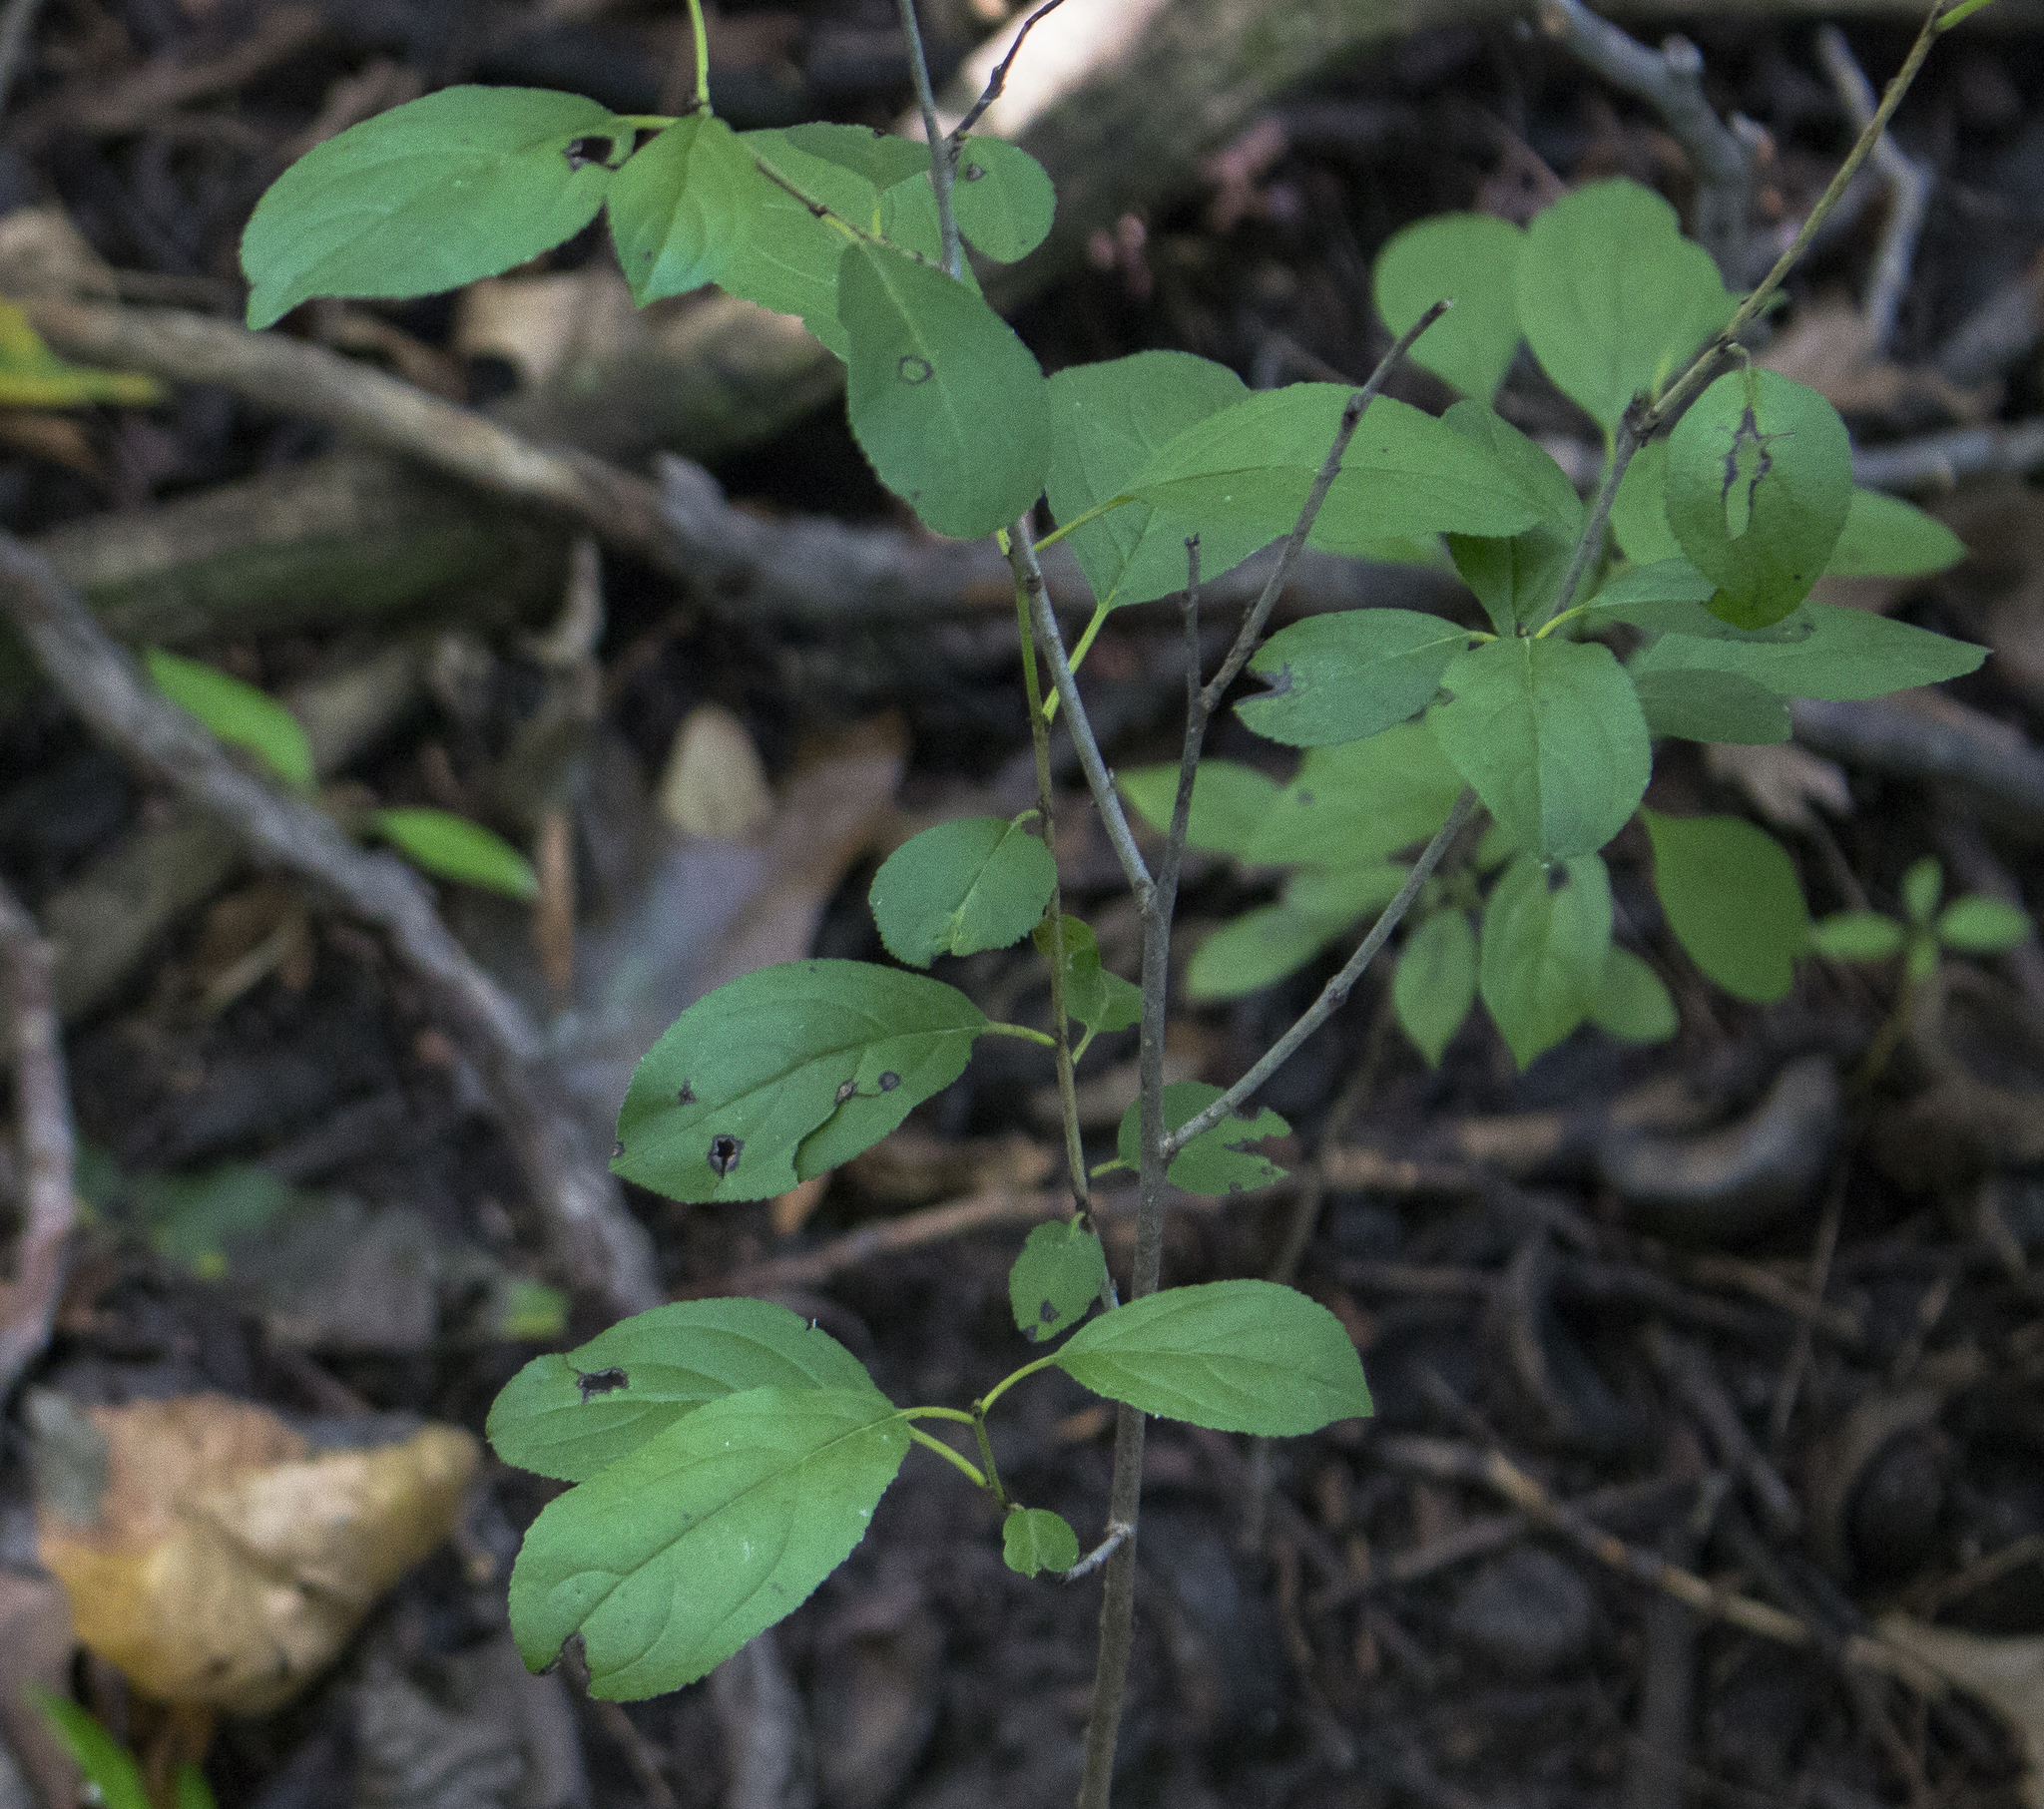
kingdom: Plantae
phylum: Tracheophyta
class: Magnoliopsida
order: Rosales
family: Rhamnaceae
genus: Rhamnus
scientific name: Rhamnus cathartica
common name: Common buckthorn
